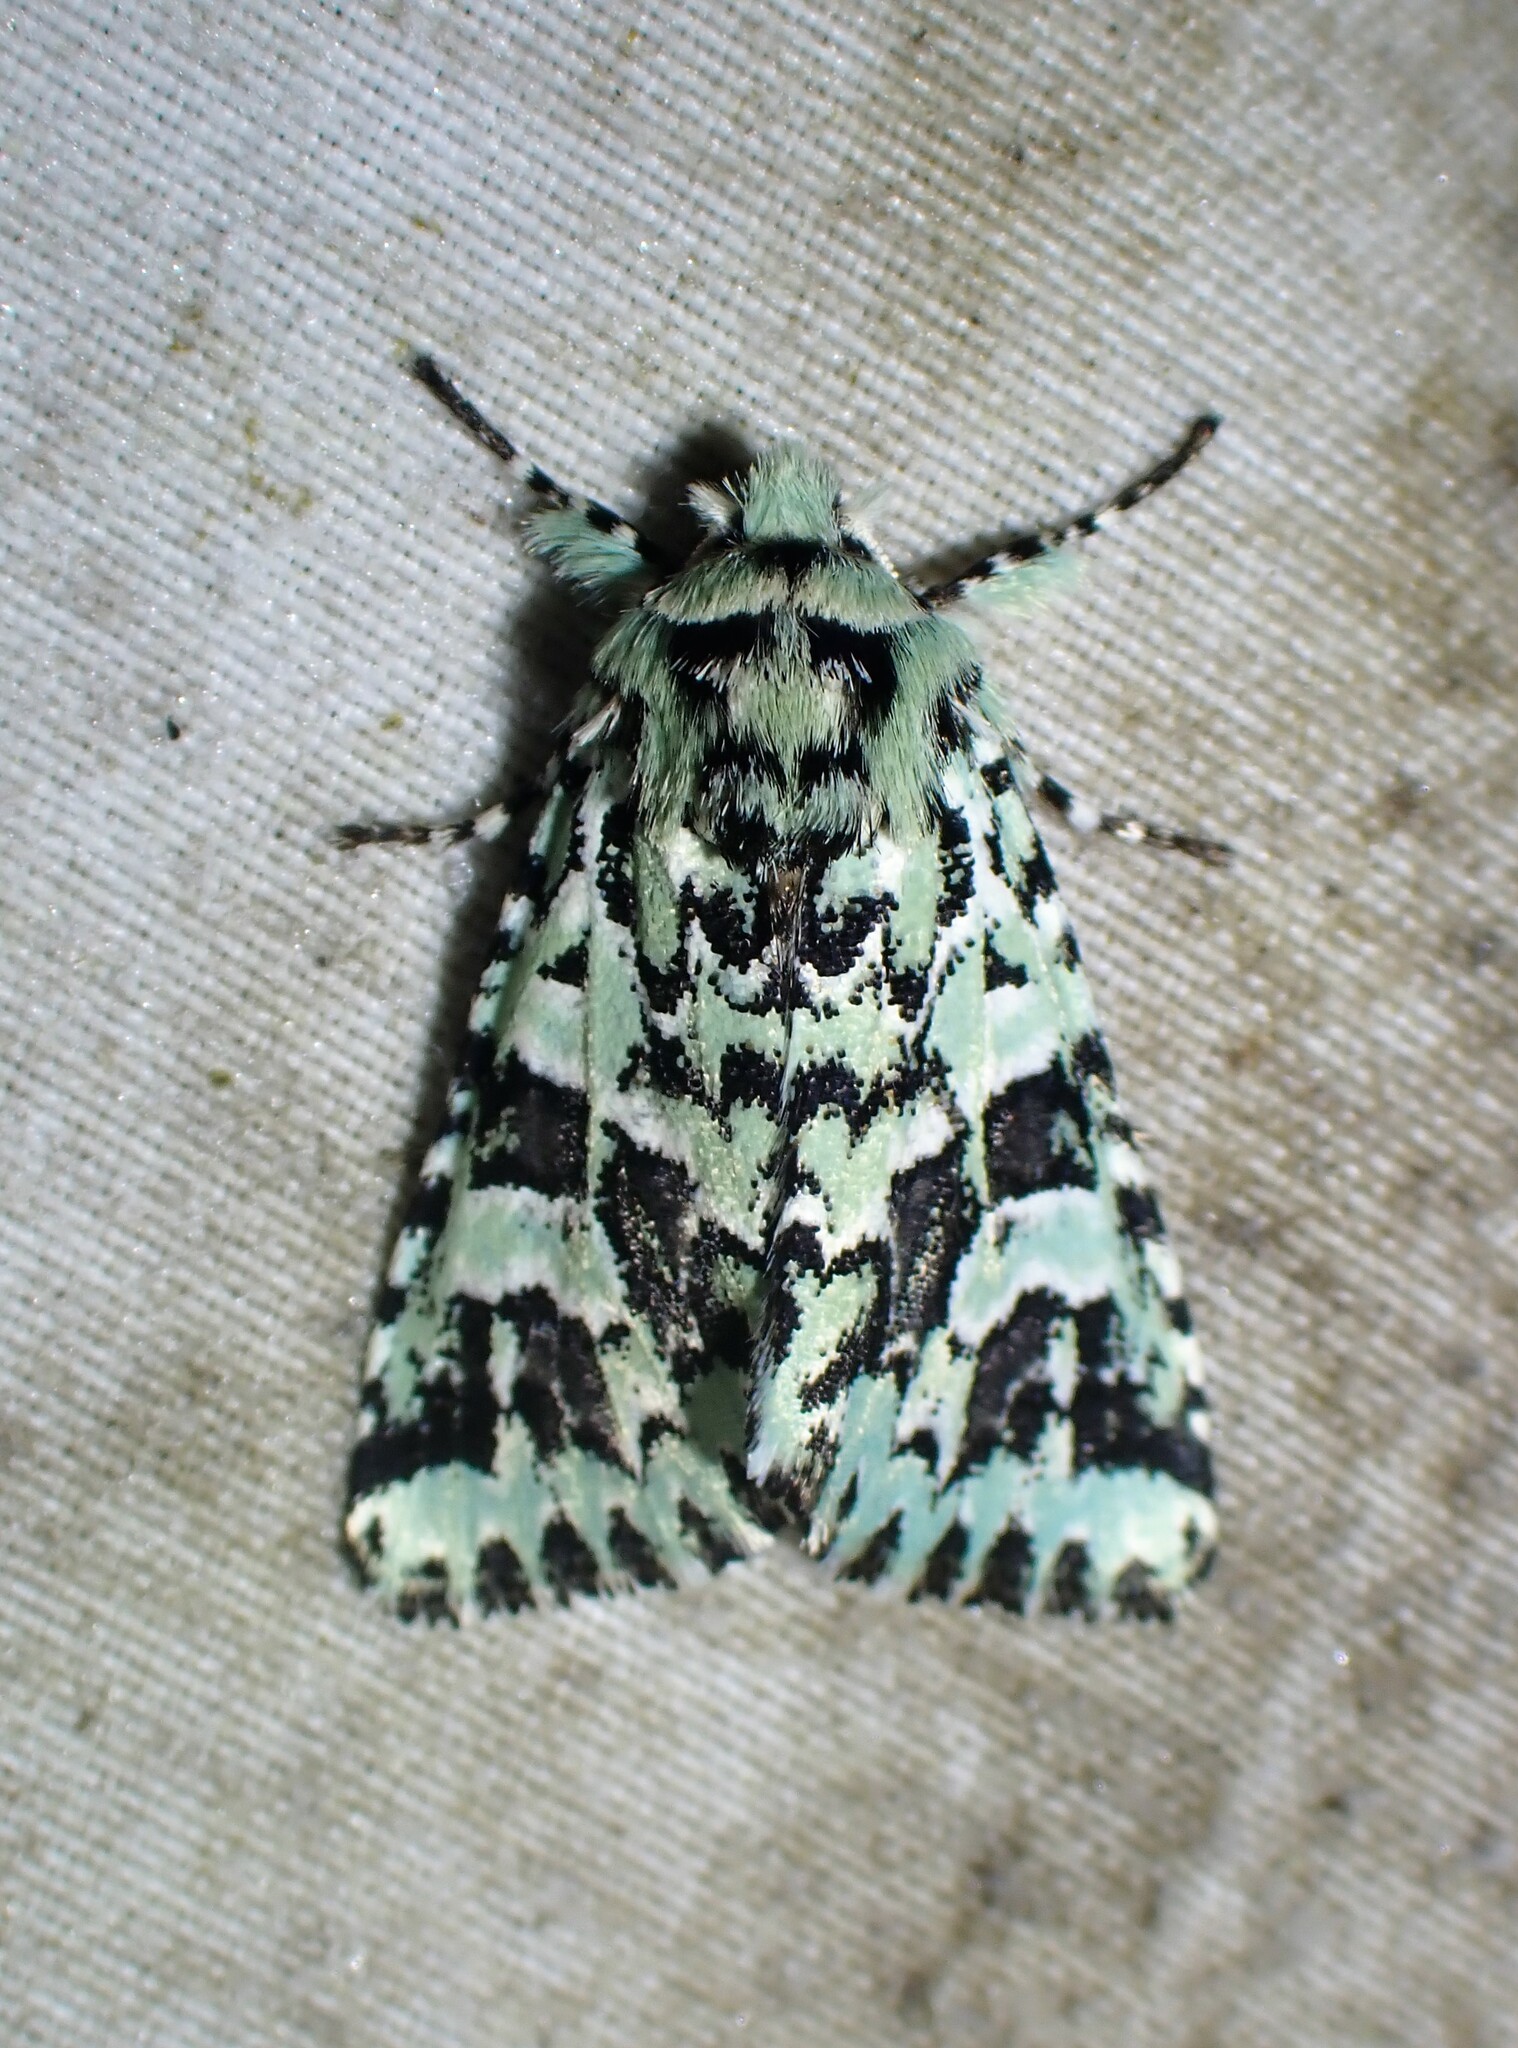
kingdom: Animalia
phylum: Arthropoda
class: Insecta
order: Lepidoptera
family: Noctuidae
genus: Feralia
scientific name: Feralia comstocki
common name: Comstock's sallow
